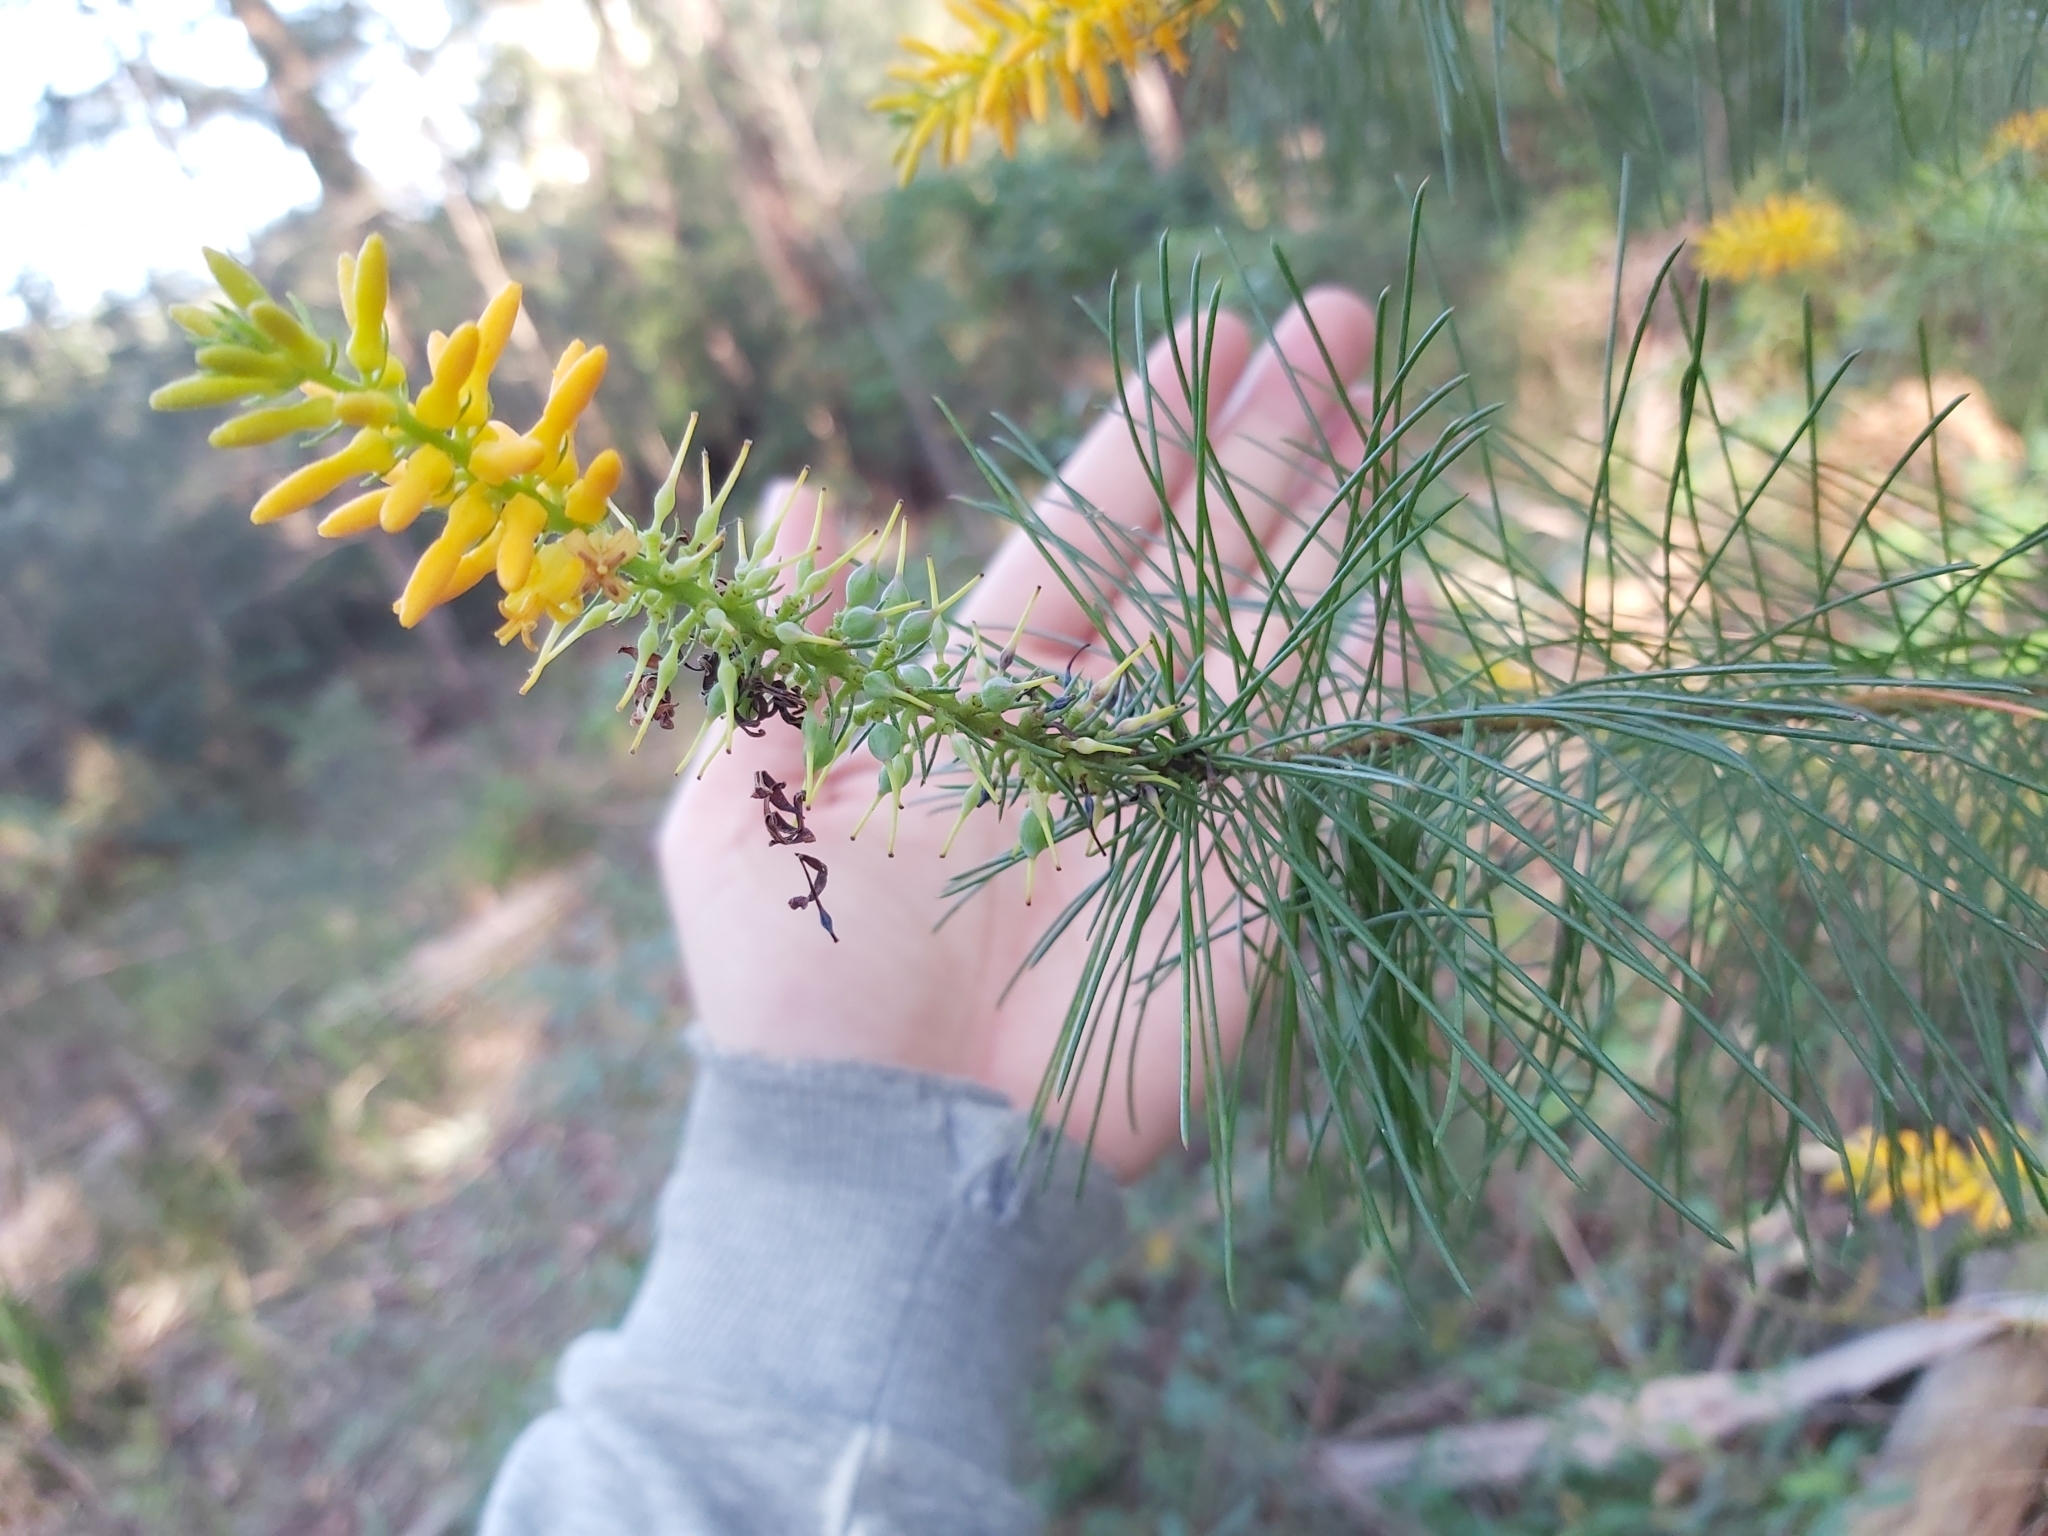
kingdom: Plantae
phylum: Tracheophyta
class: Magnoliopsida
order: Proteales
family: Proteaceae
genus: Persoonia
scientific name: Persoonia pinifolia
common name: Pine-leaf geebung
